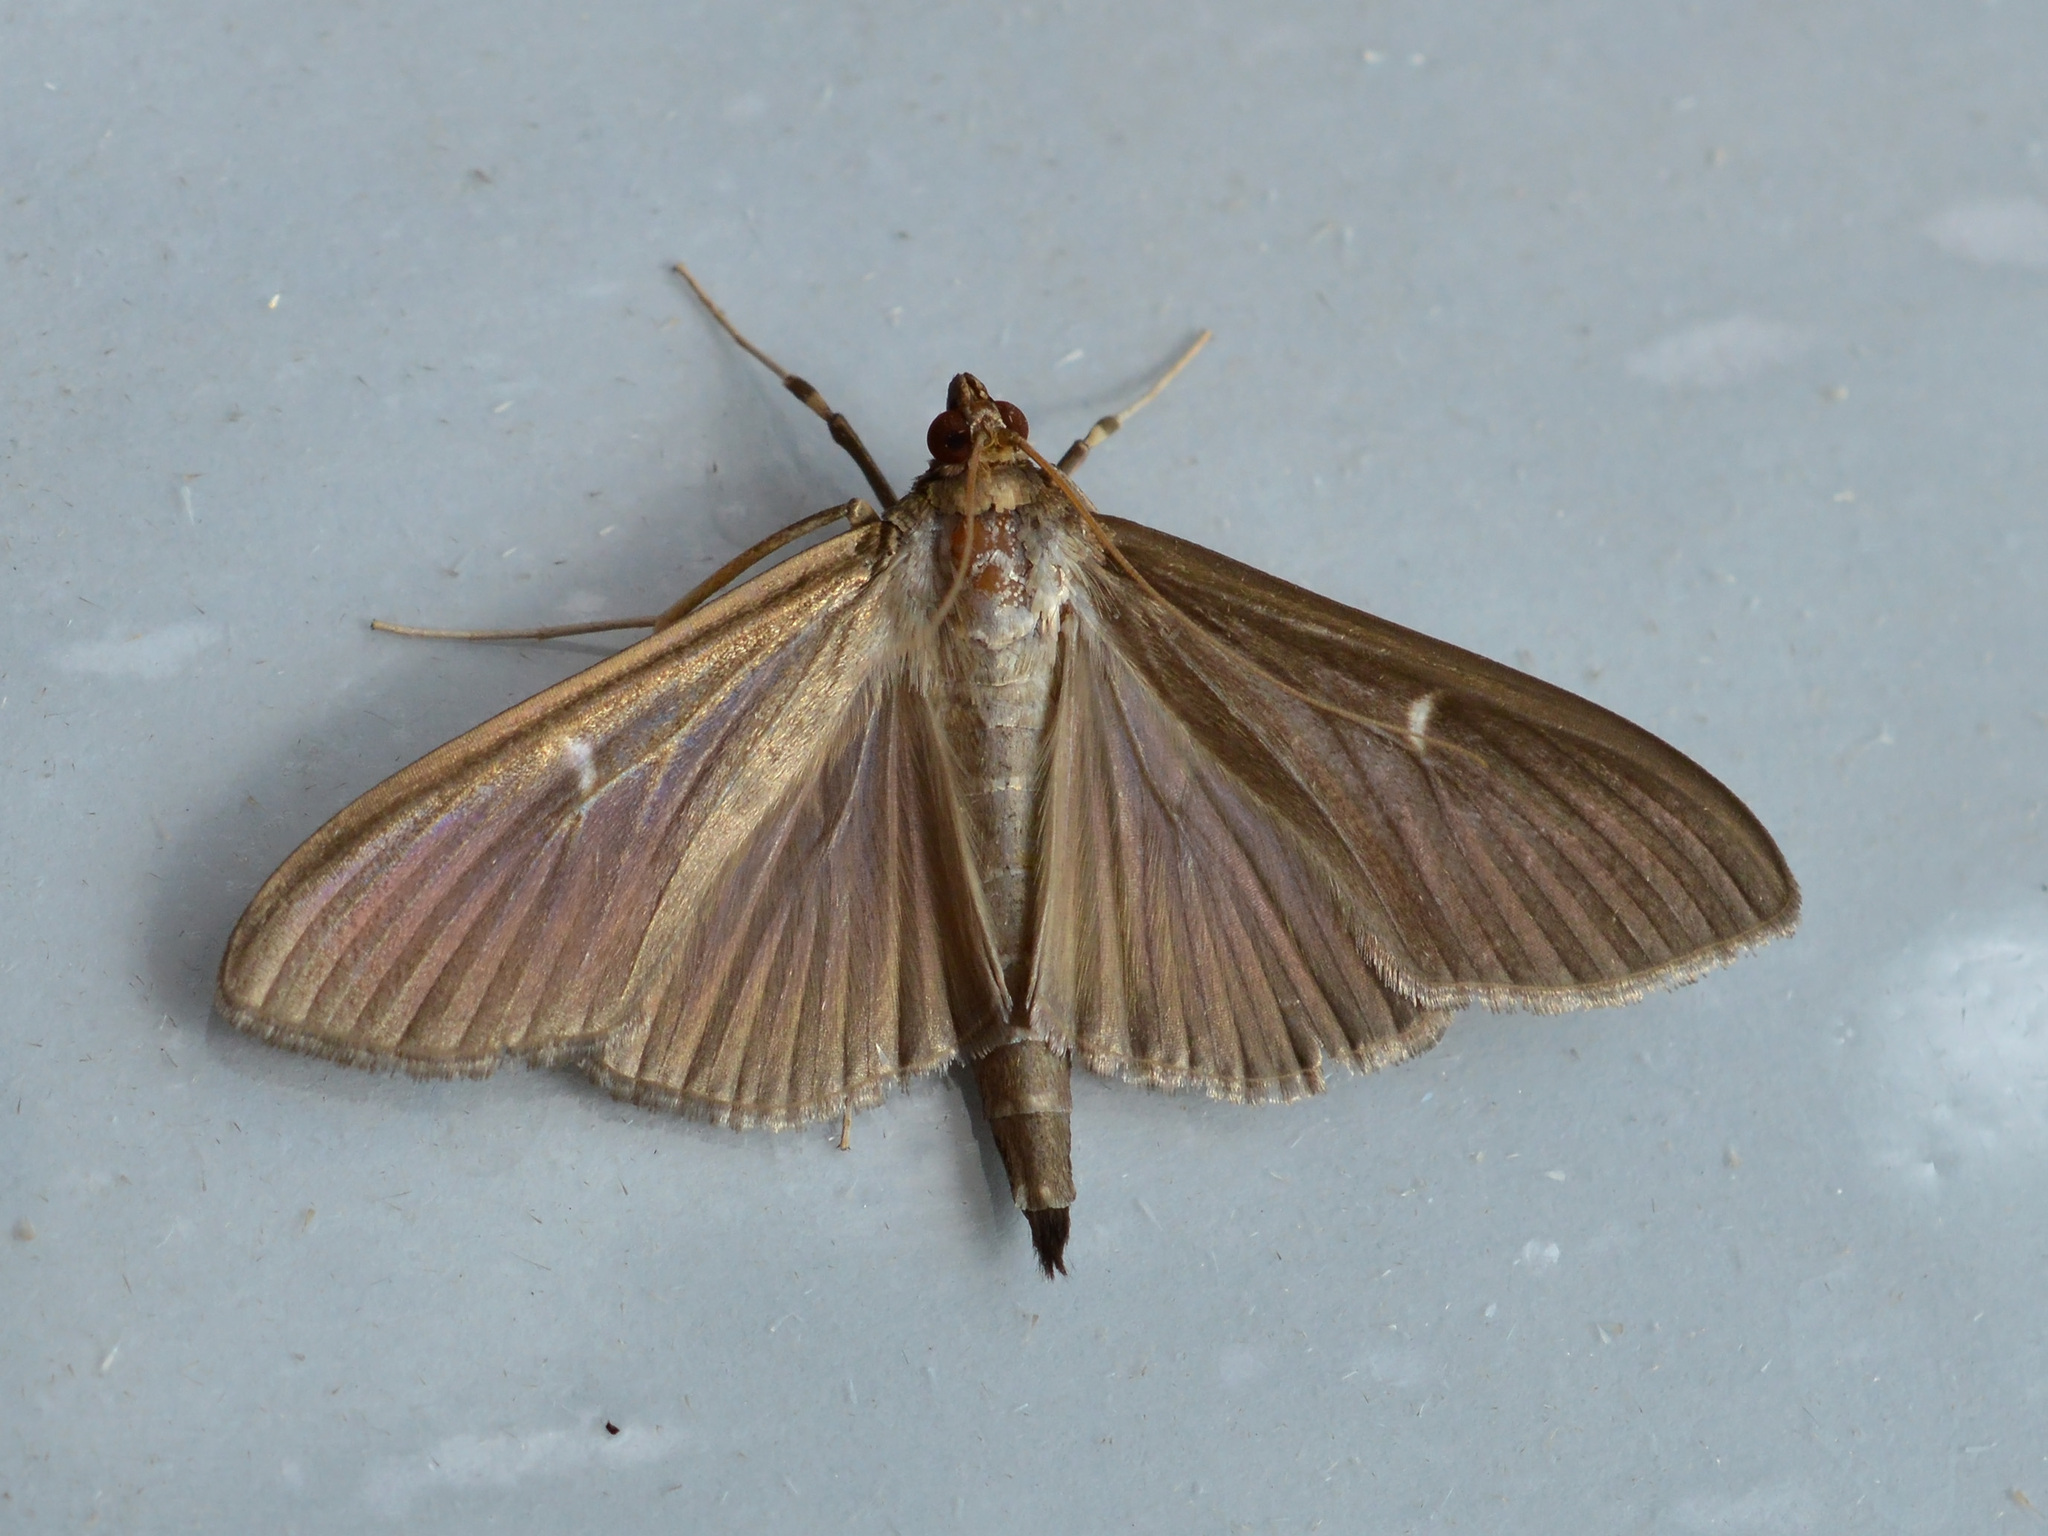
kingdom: Animalia
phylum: Arthropoda
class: Insecta
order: Lepidoptera
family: Crambidae
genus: Cydalima
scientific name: Cydalima perspectalis
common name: Box tree moth
